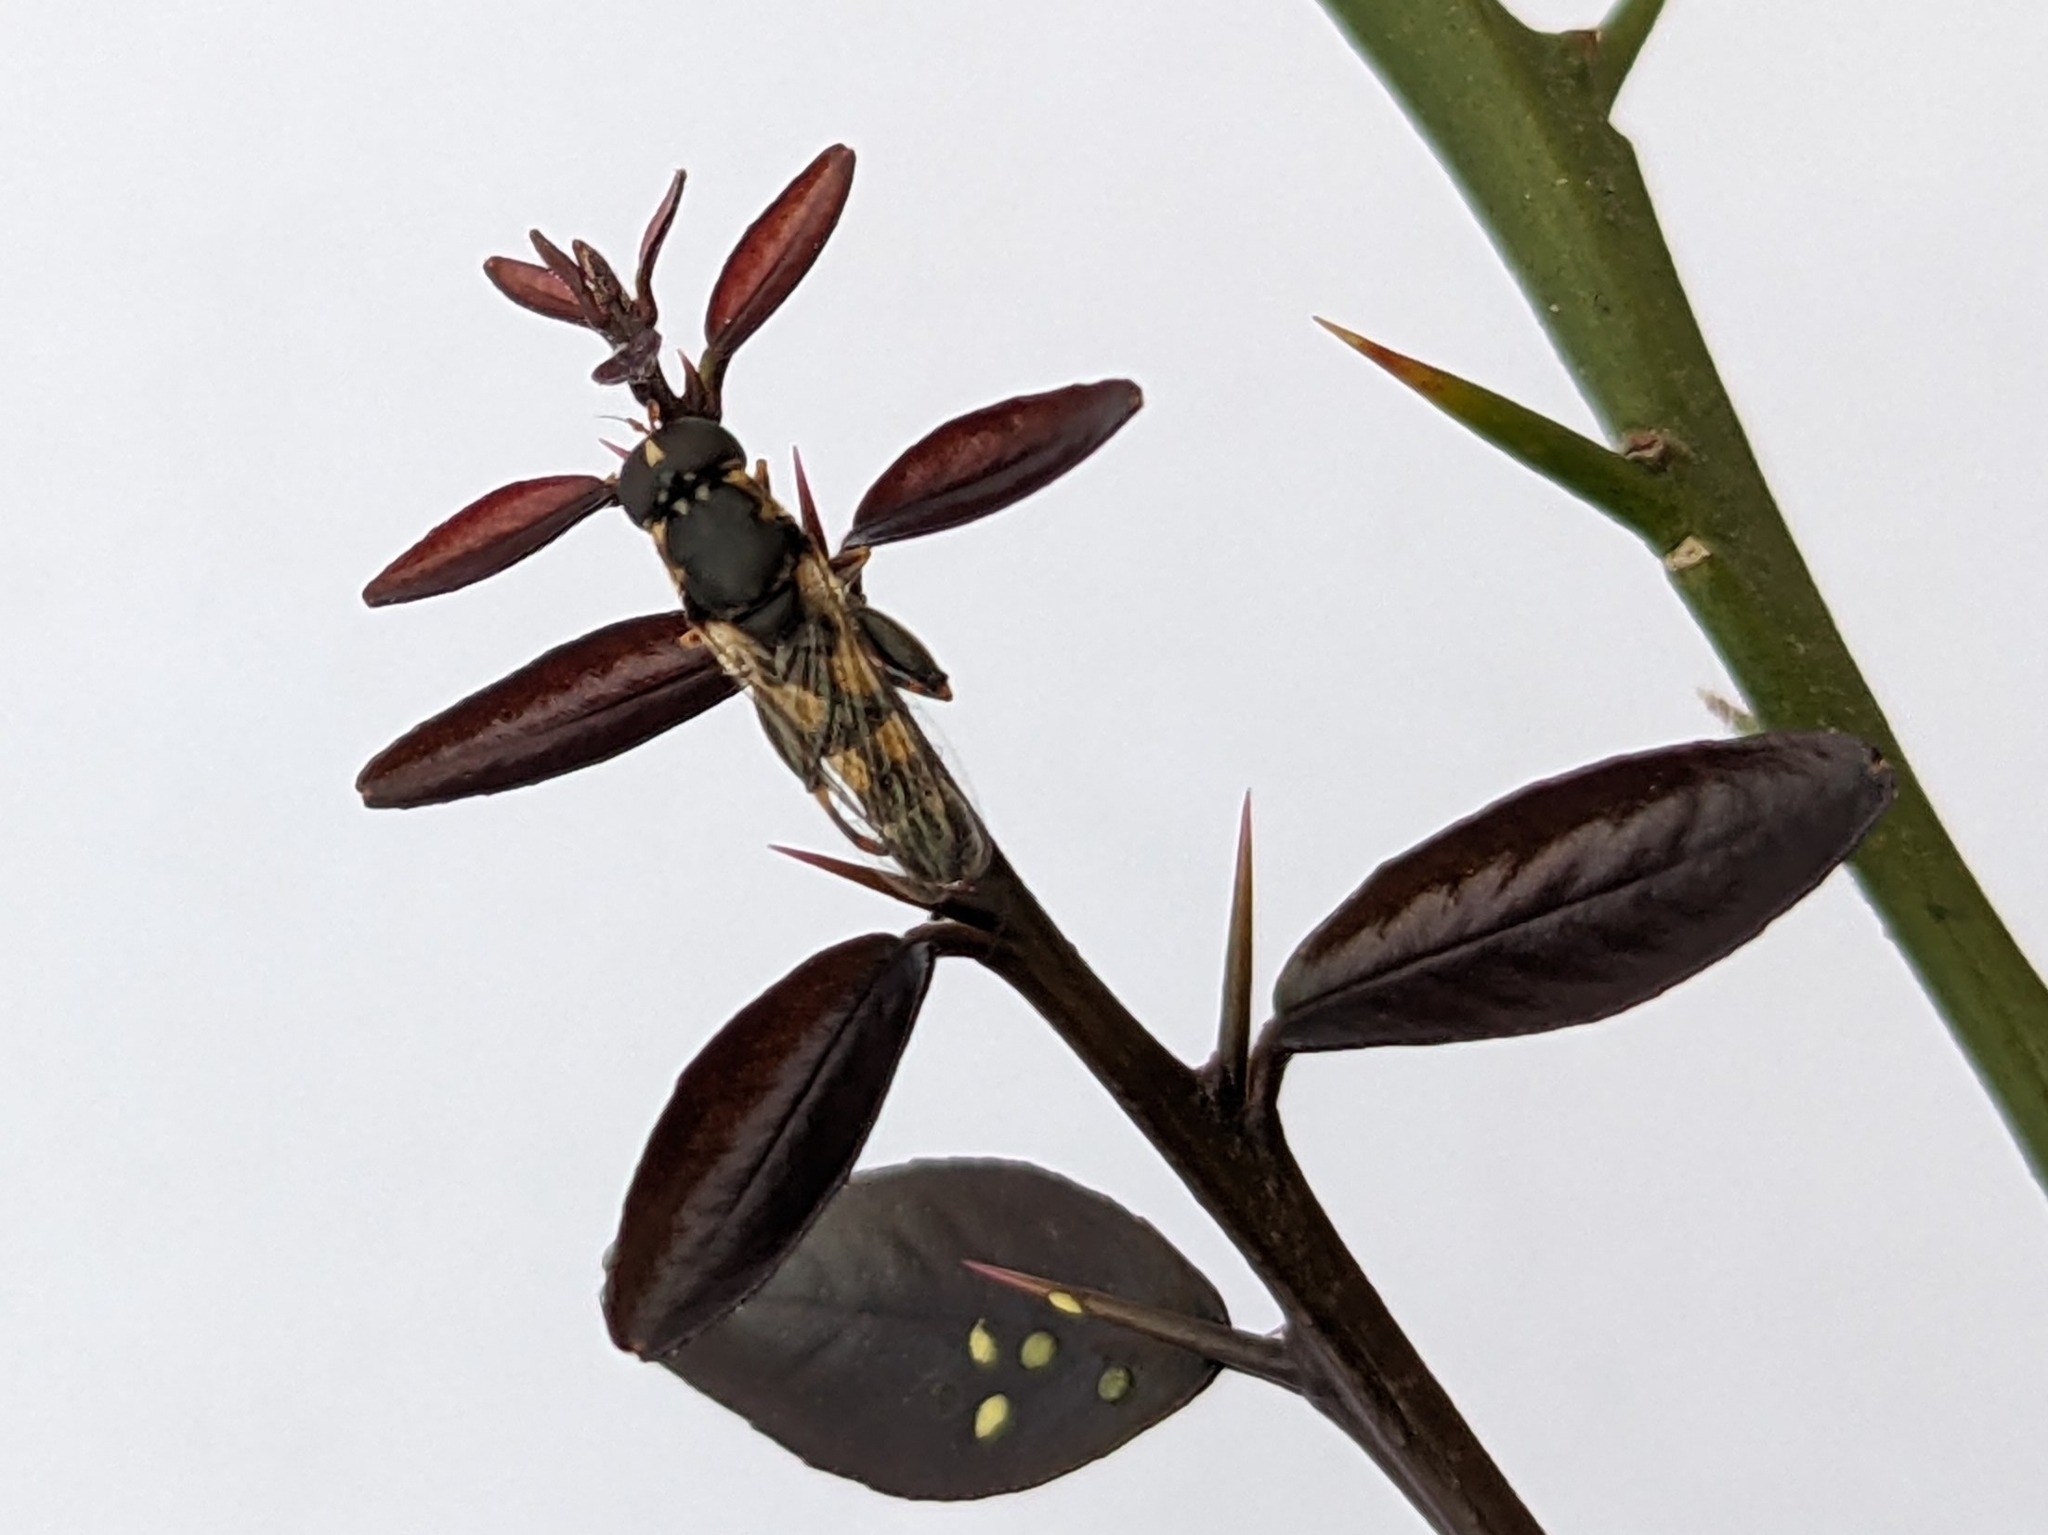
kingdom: Animalia
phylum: Arthropoda
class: Insecta
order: Diptera
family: Syrphidae
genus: Syritta
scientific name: Syritta pipiens
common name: Hover fly
